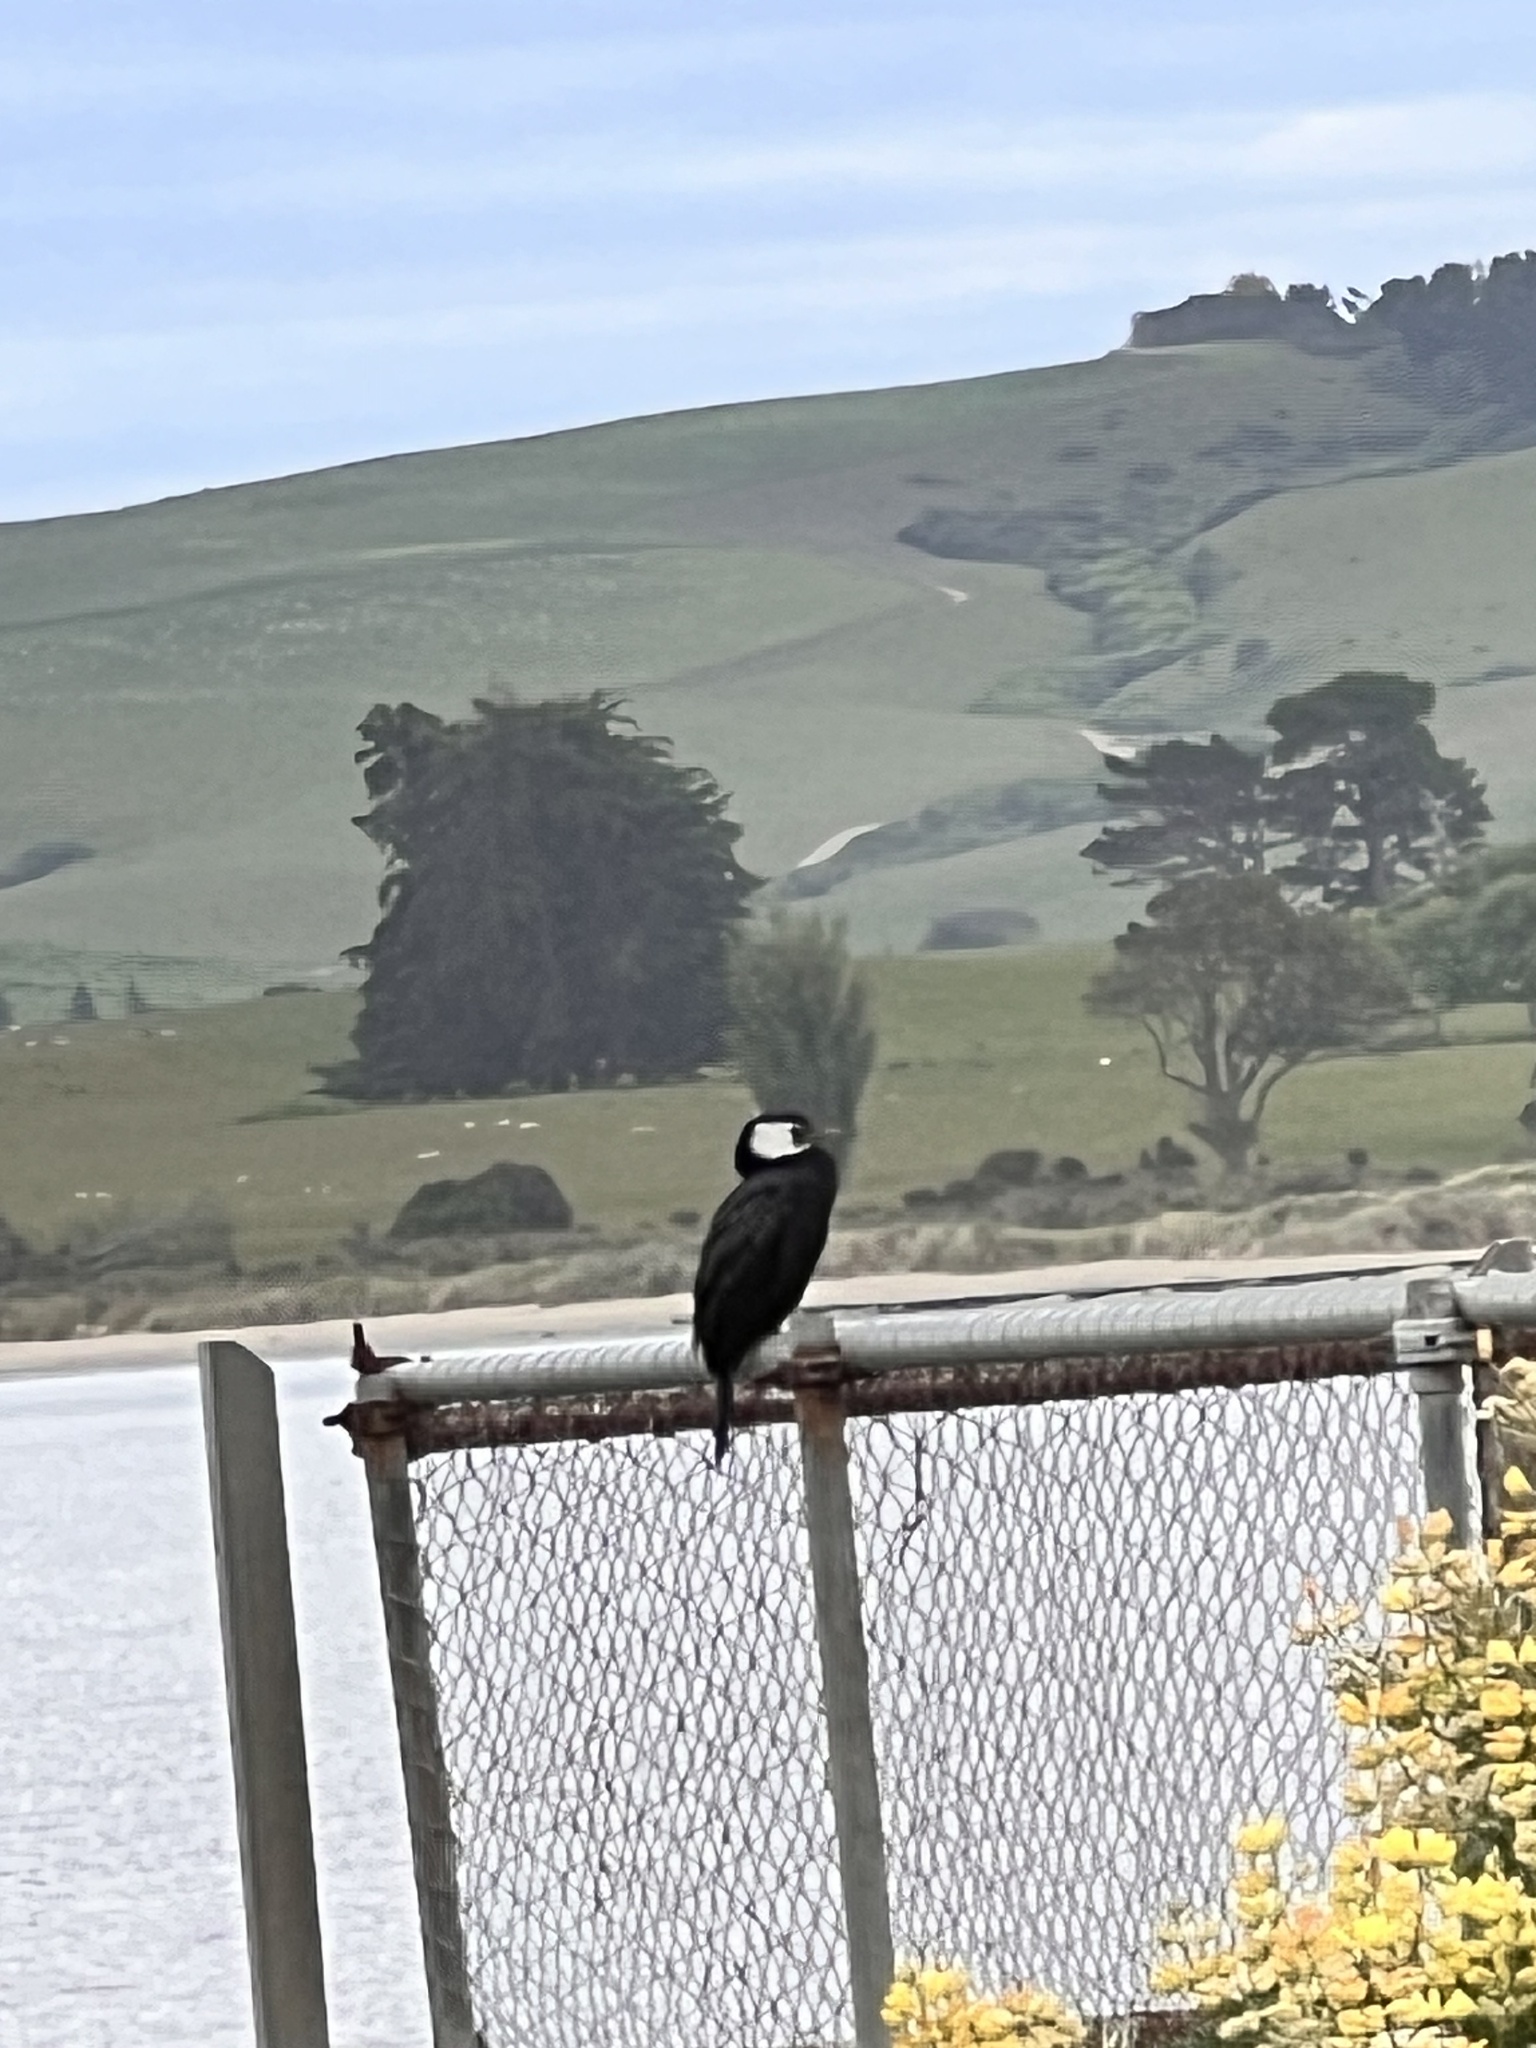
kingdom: Animalia
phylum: Chordata
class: Aves
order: Suliformes
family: Phalacrocoracidae
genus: Microcarbo
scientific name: Microcarbo melanoleucos
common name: Little pied cormorant
